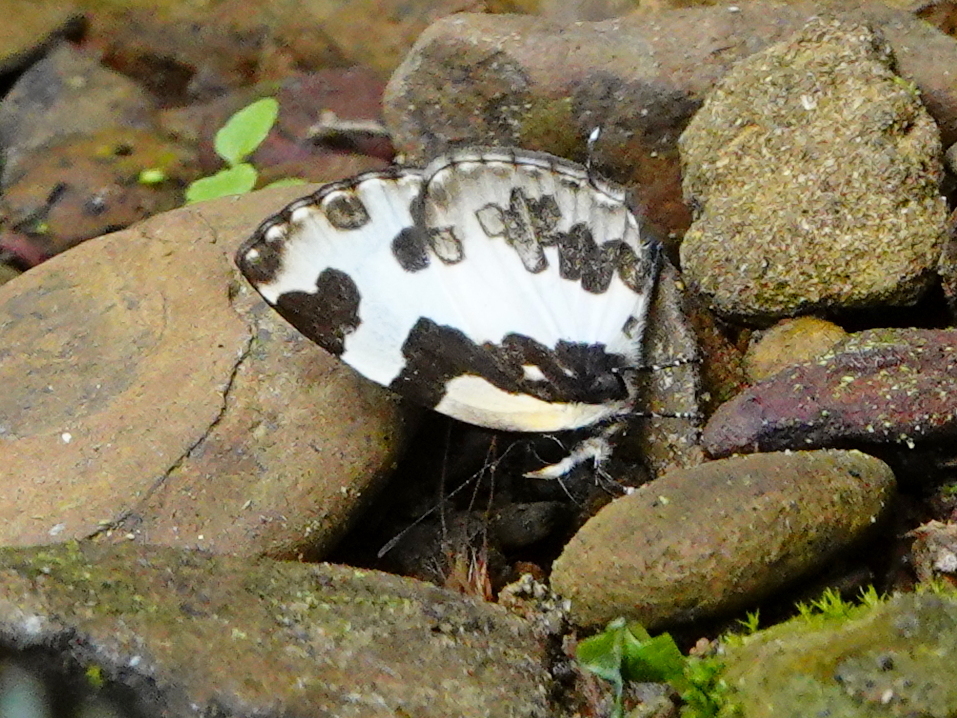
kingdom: Animalia
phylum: Arthropoda
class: Insecta
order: Lepidoptera
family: Lycaenidae
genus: Caleta
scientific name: Caleta elna
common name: Elbowed pierrot
